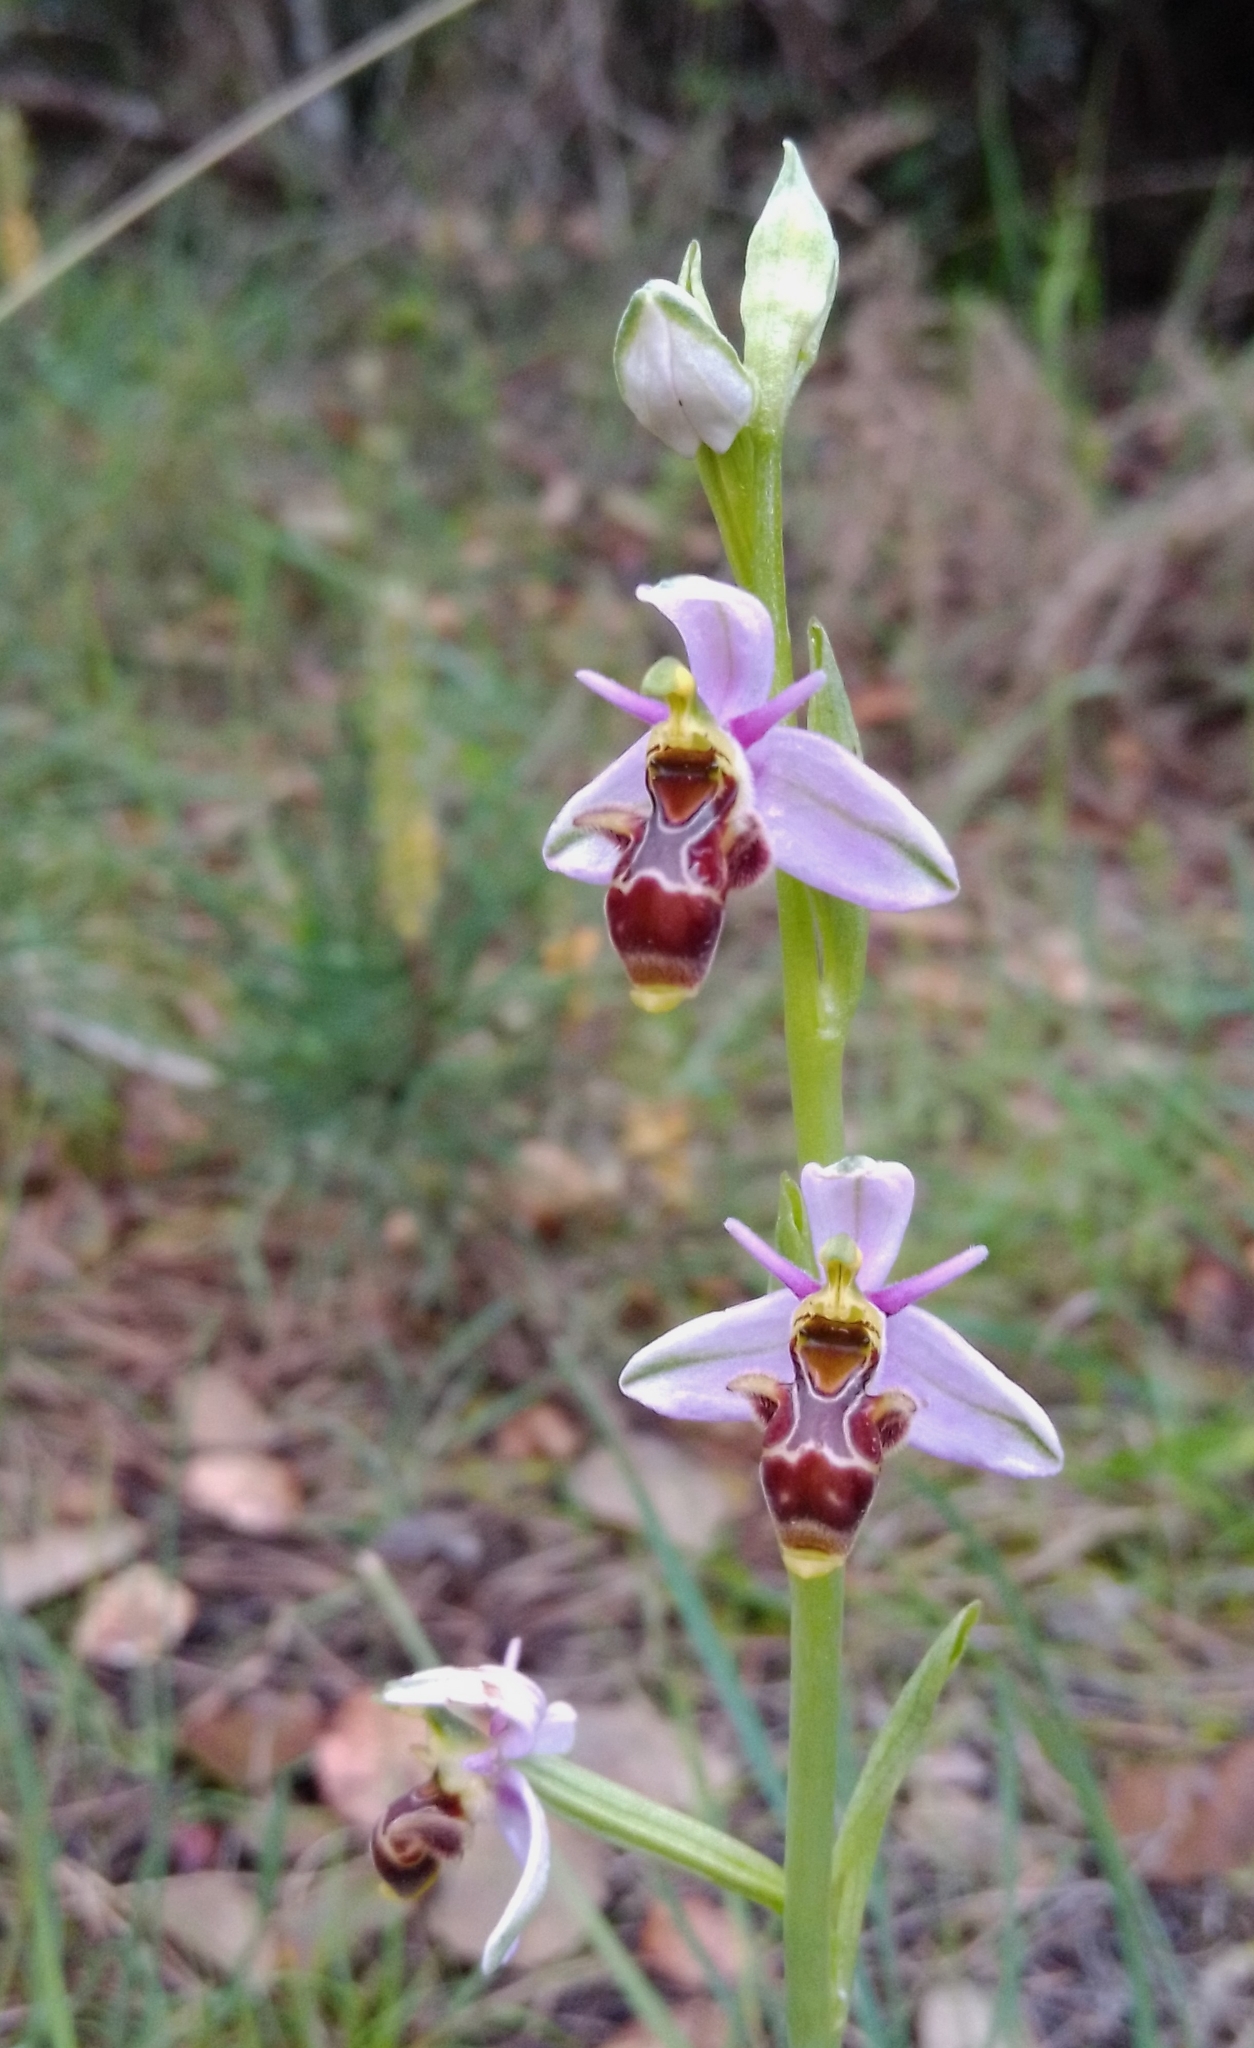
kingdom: Plantae
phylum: Tracheophyta
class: Liliopsida
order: Asparagales
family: Orchidaceae
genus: Ophrys
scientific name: Ophrys scolopax
